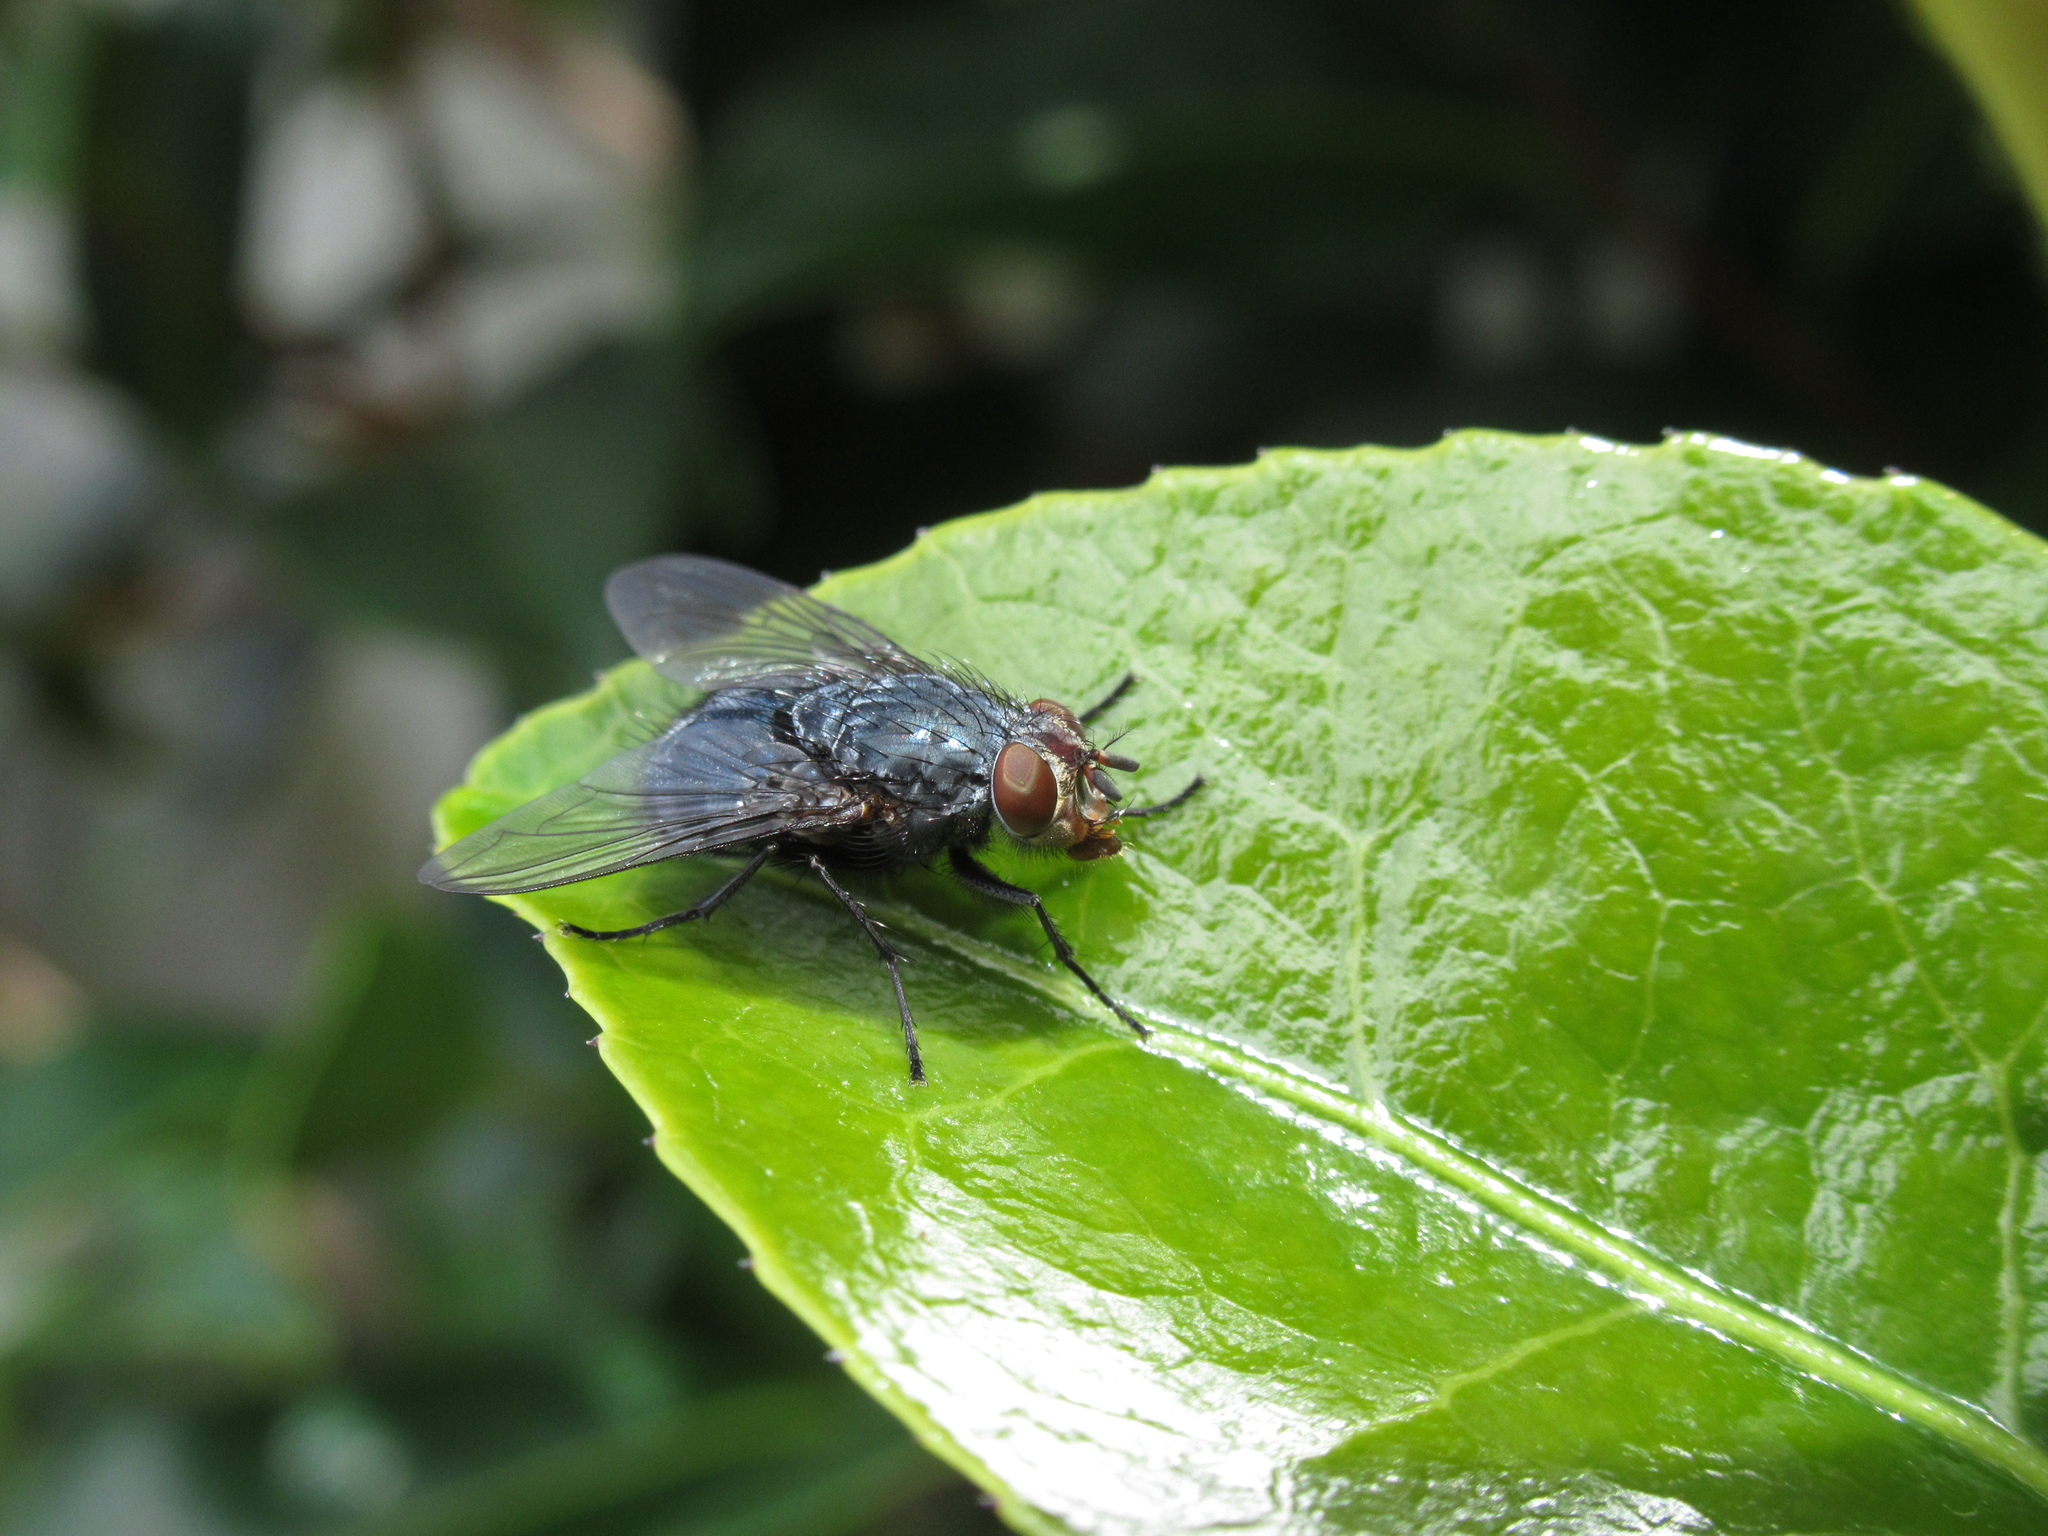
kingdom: Animalia
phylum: Arthropoda
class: Insecta
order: Diptera
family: Calliphoridae
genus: Calliphora
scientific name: Calliphora vicina
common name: Common blow flie
